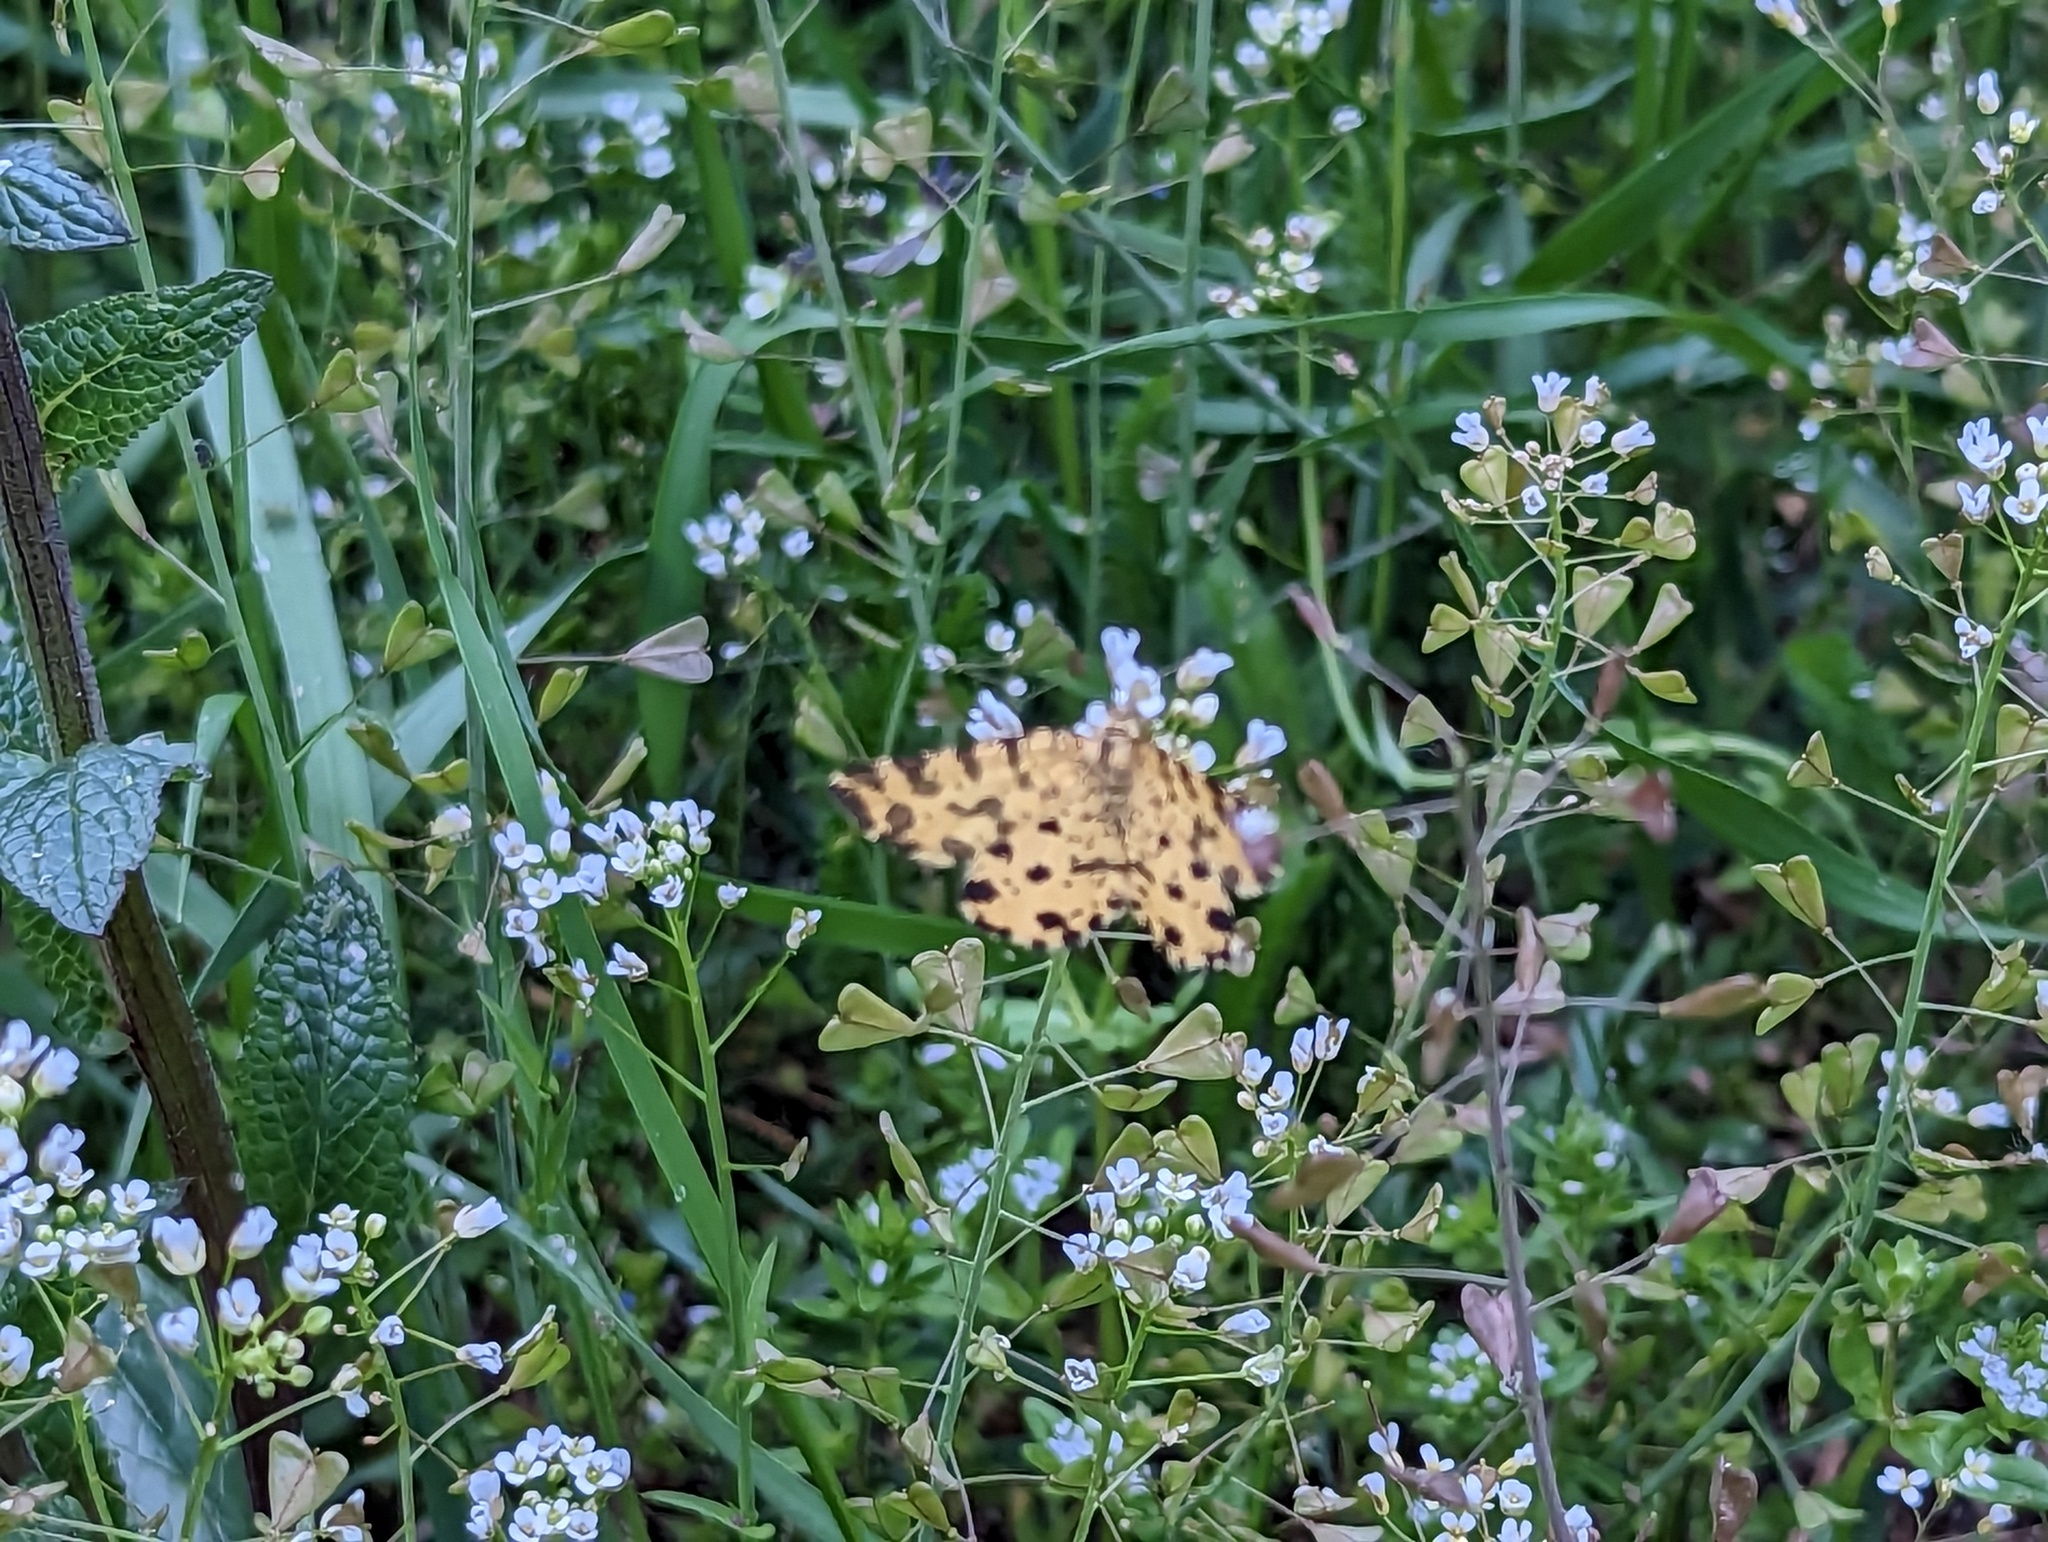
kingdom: Animalia
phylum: Arthropoda
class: Insecta
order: Lepidoptera
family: Geometridae
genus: Pseudopanthera
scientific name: Pseudopanthera macularia
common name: Speckled yellow
